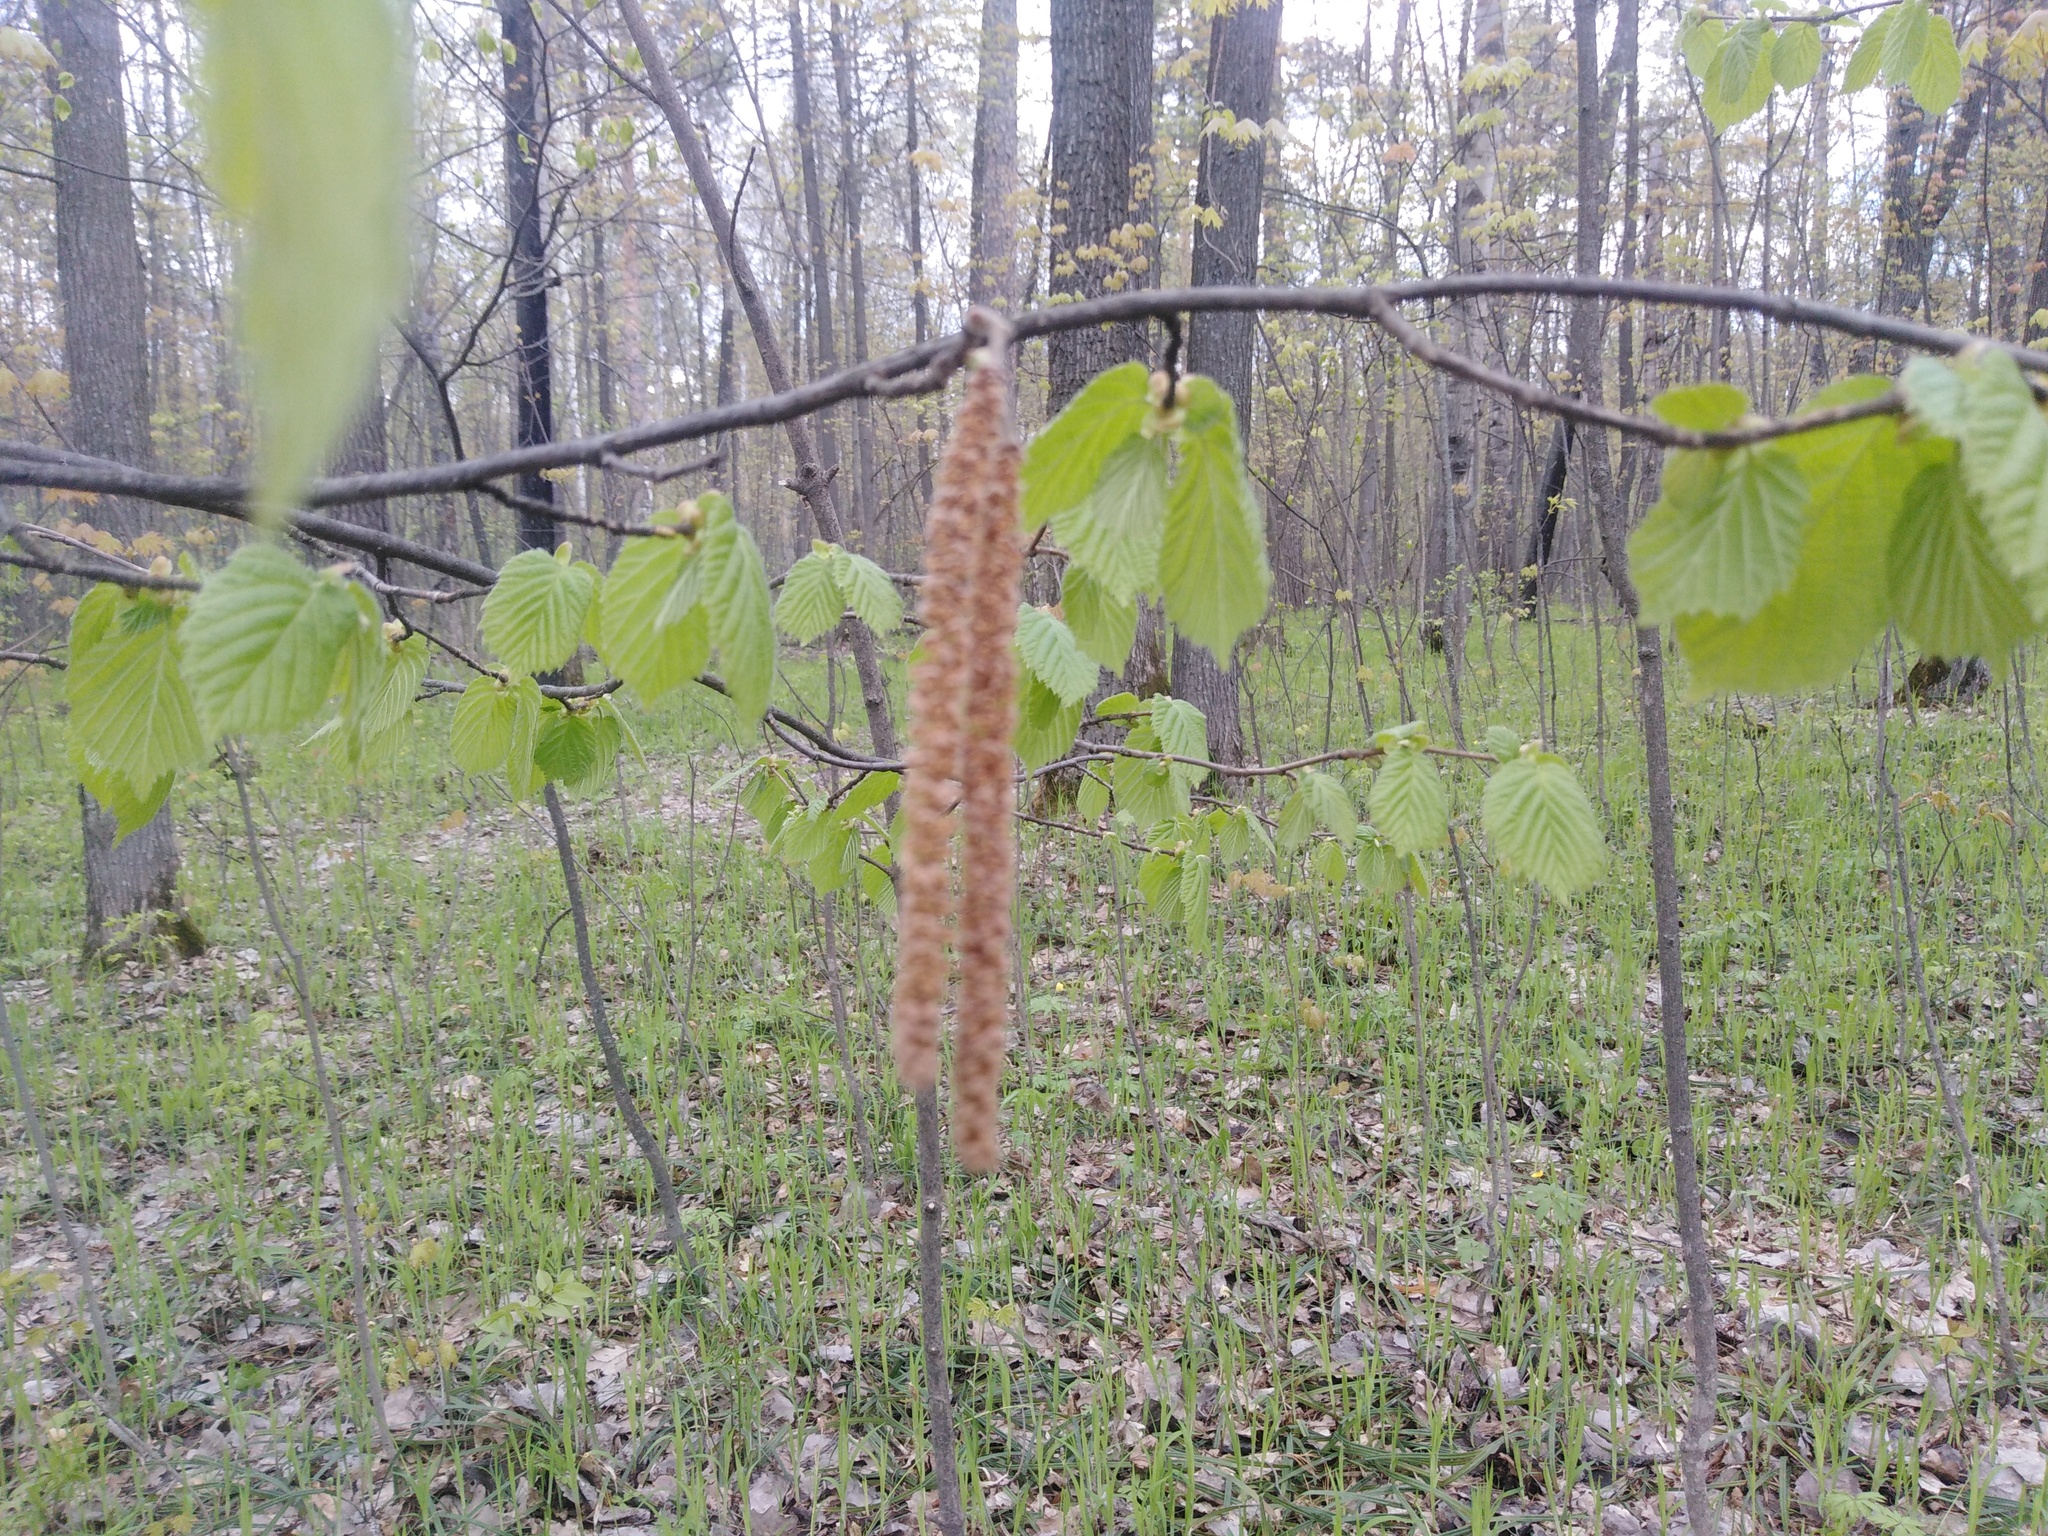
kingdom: Plantae
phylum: Tracheophyta
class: Magnoliopsida
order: Fagales
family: Betulaceae
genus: Corylus
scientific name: Corylus avellana
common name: European hazel
